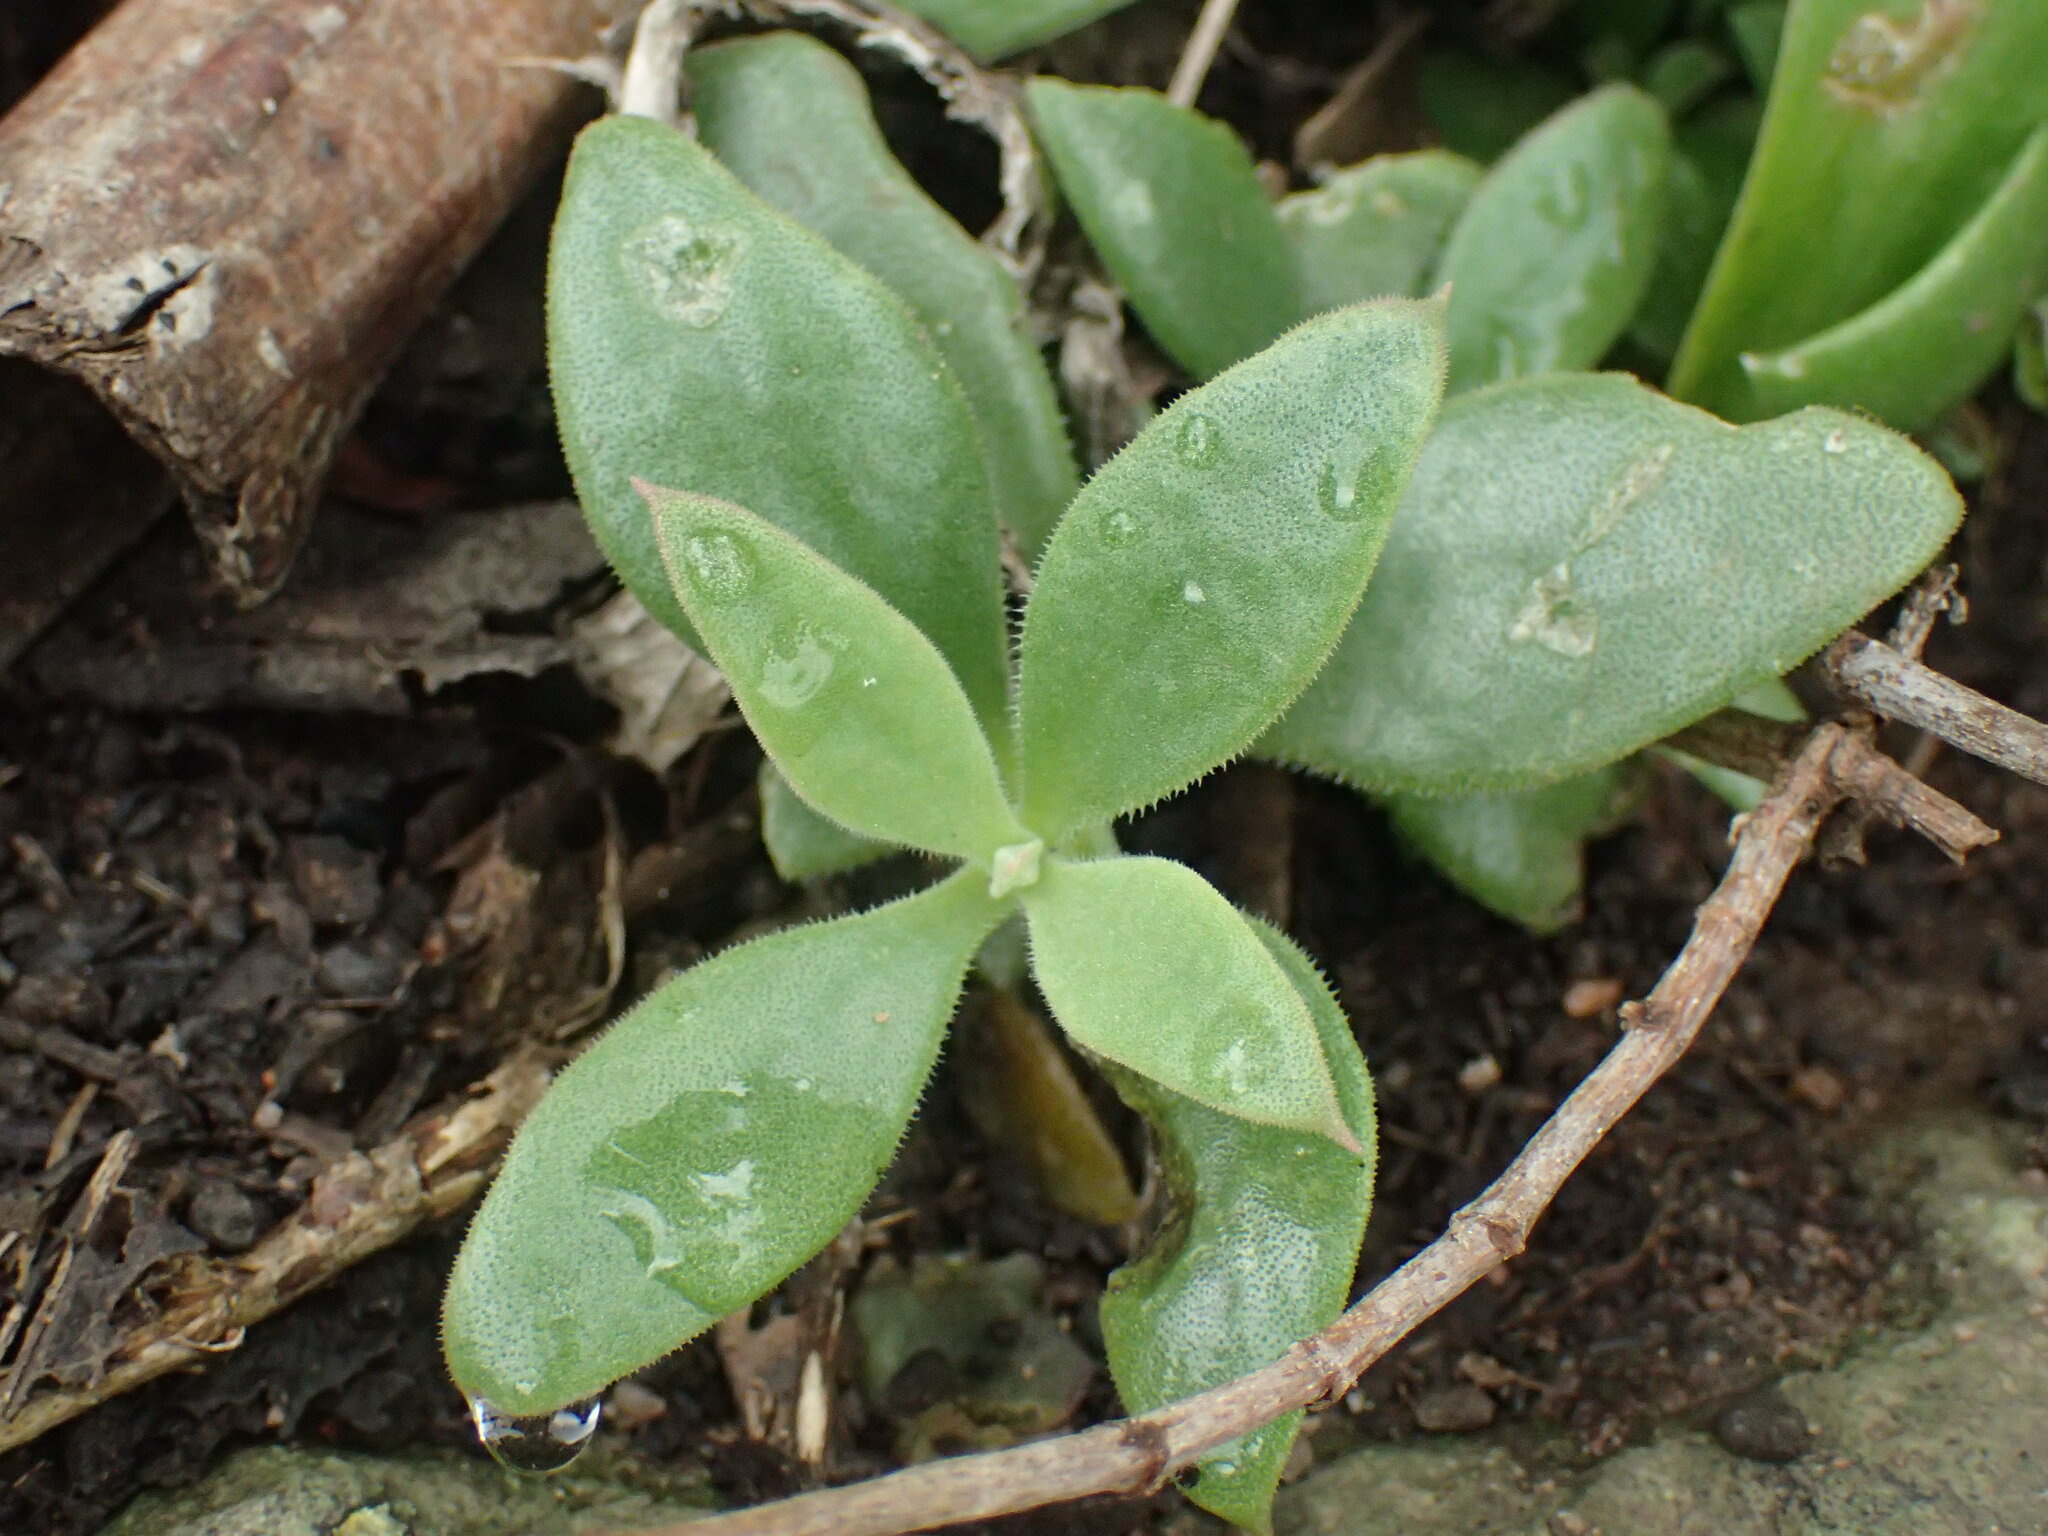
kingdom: Plantae
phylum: Tracheophyta
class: Magnoliopsida
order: Caryophyllales
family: Aizoaceae
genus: Delosperma
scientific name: Delosperma tradescantioides
